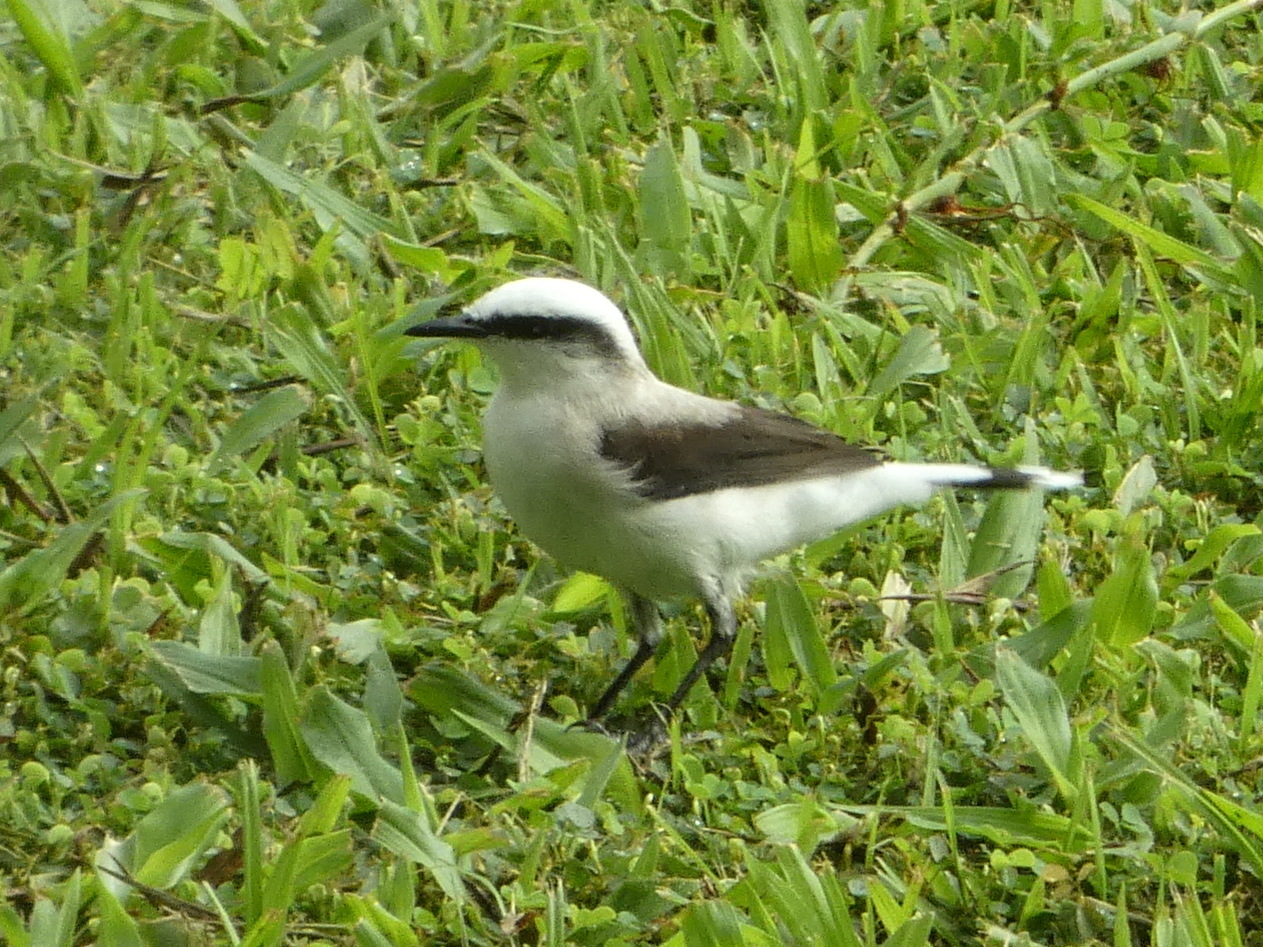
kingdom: Animalia
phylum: Chordata
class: Aves
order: Passeriformes
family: Tyrannidae
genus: Fluvicola
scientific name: Fluvicola nengeta
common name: Masked water tyrant
